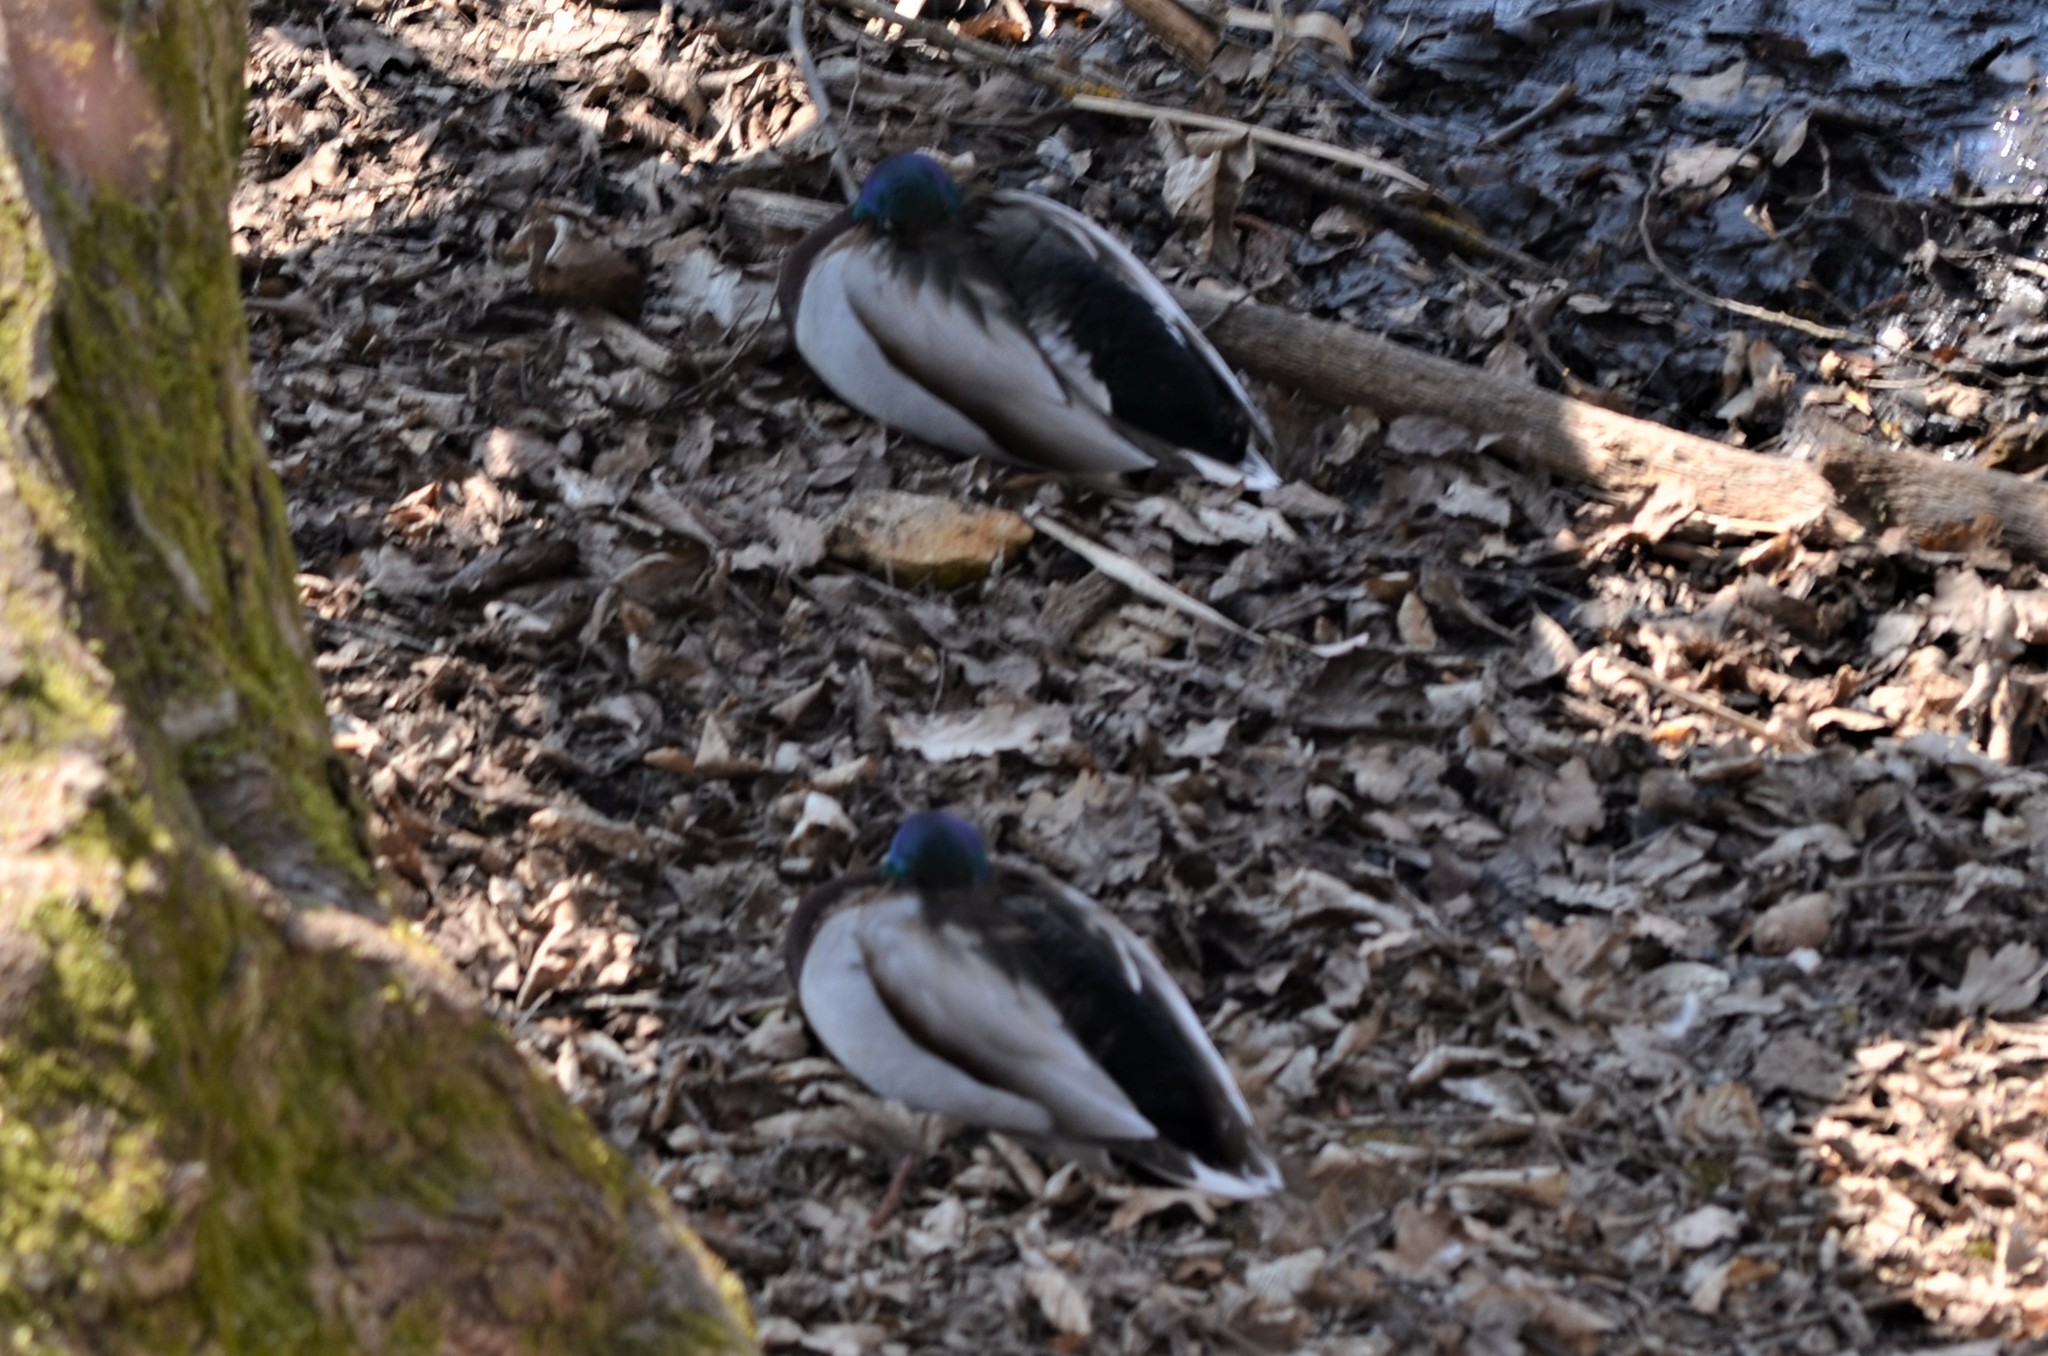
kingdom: Animalia
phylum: Chordata
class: Aves
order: Anseriformes
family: Anatidae
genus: Anas
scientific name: Anas platyrhynchos
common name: Mallard
